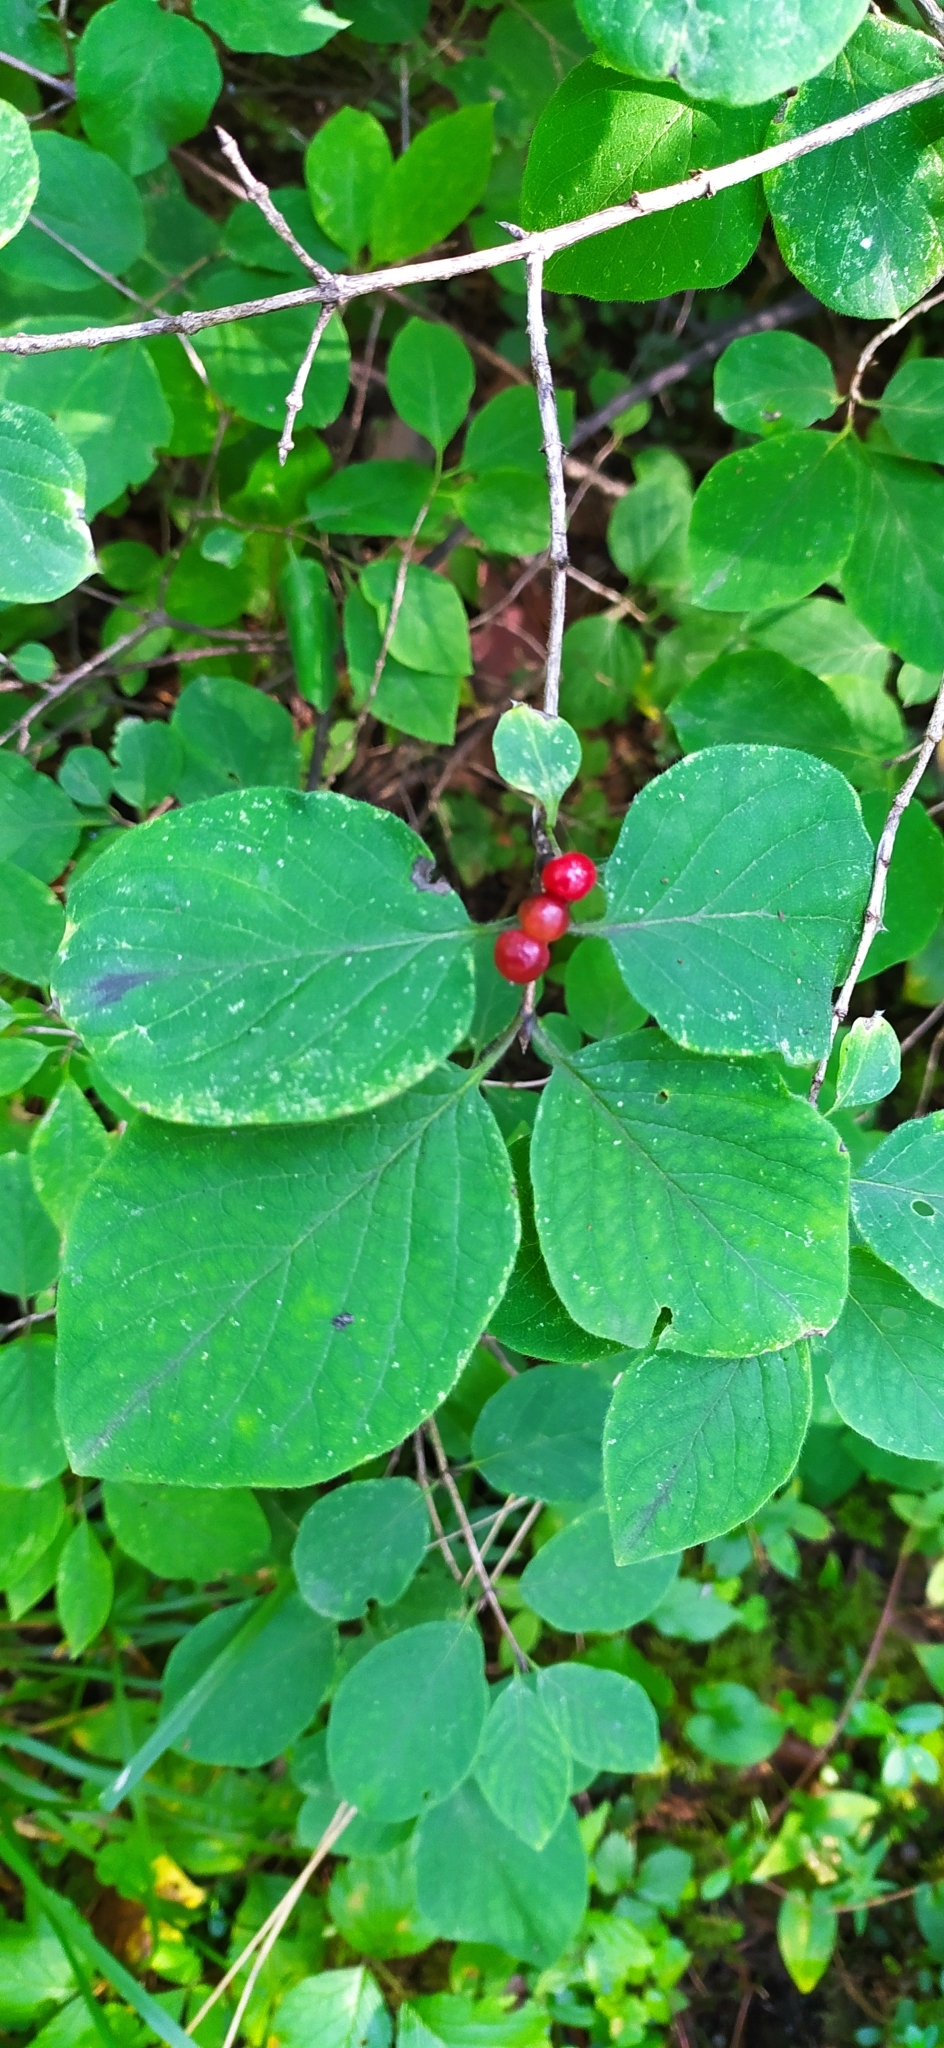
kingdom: Plantae
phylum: Tracheophyta
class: Magnoliopsida
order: Dipsacales
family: Caprifoliaceae
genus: Lonicera
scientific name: Lonicera xylosteum
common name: Fly honeysuckle
